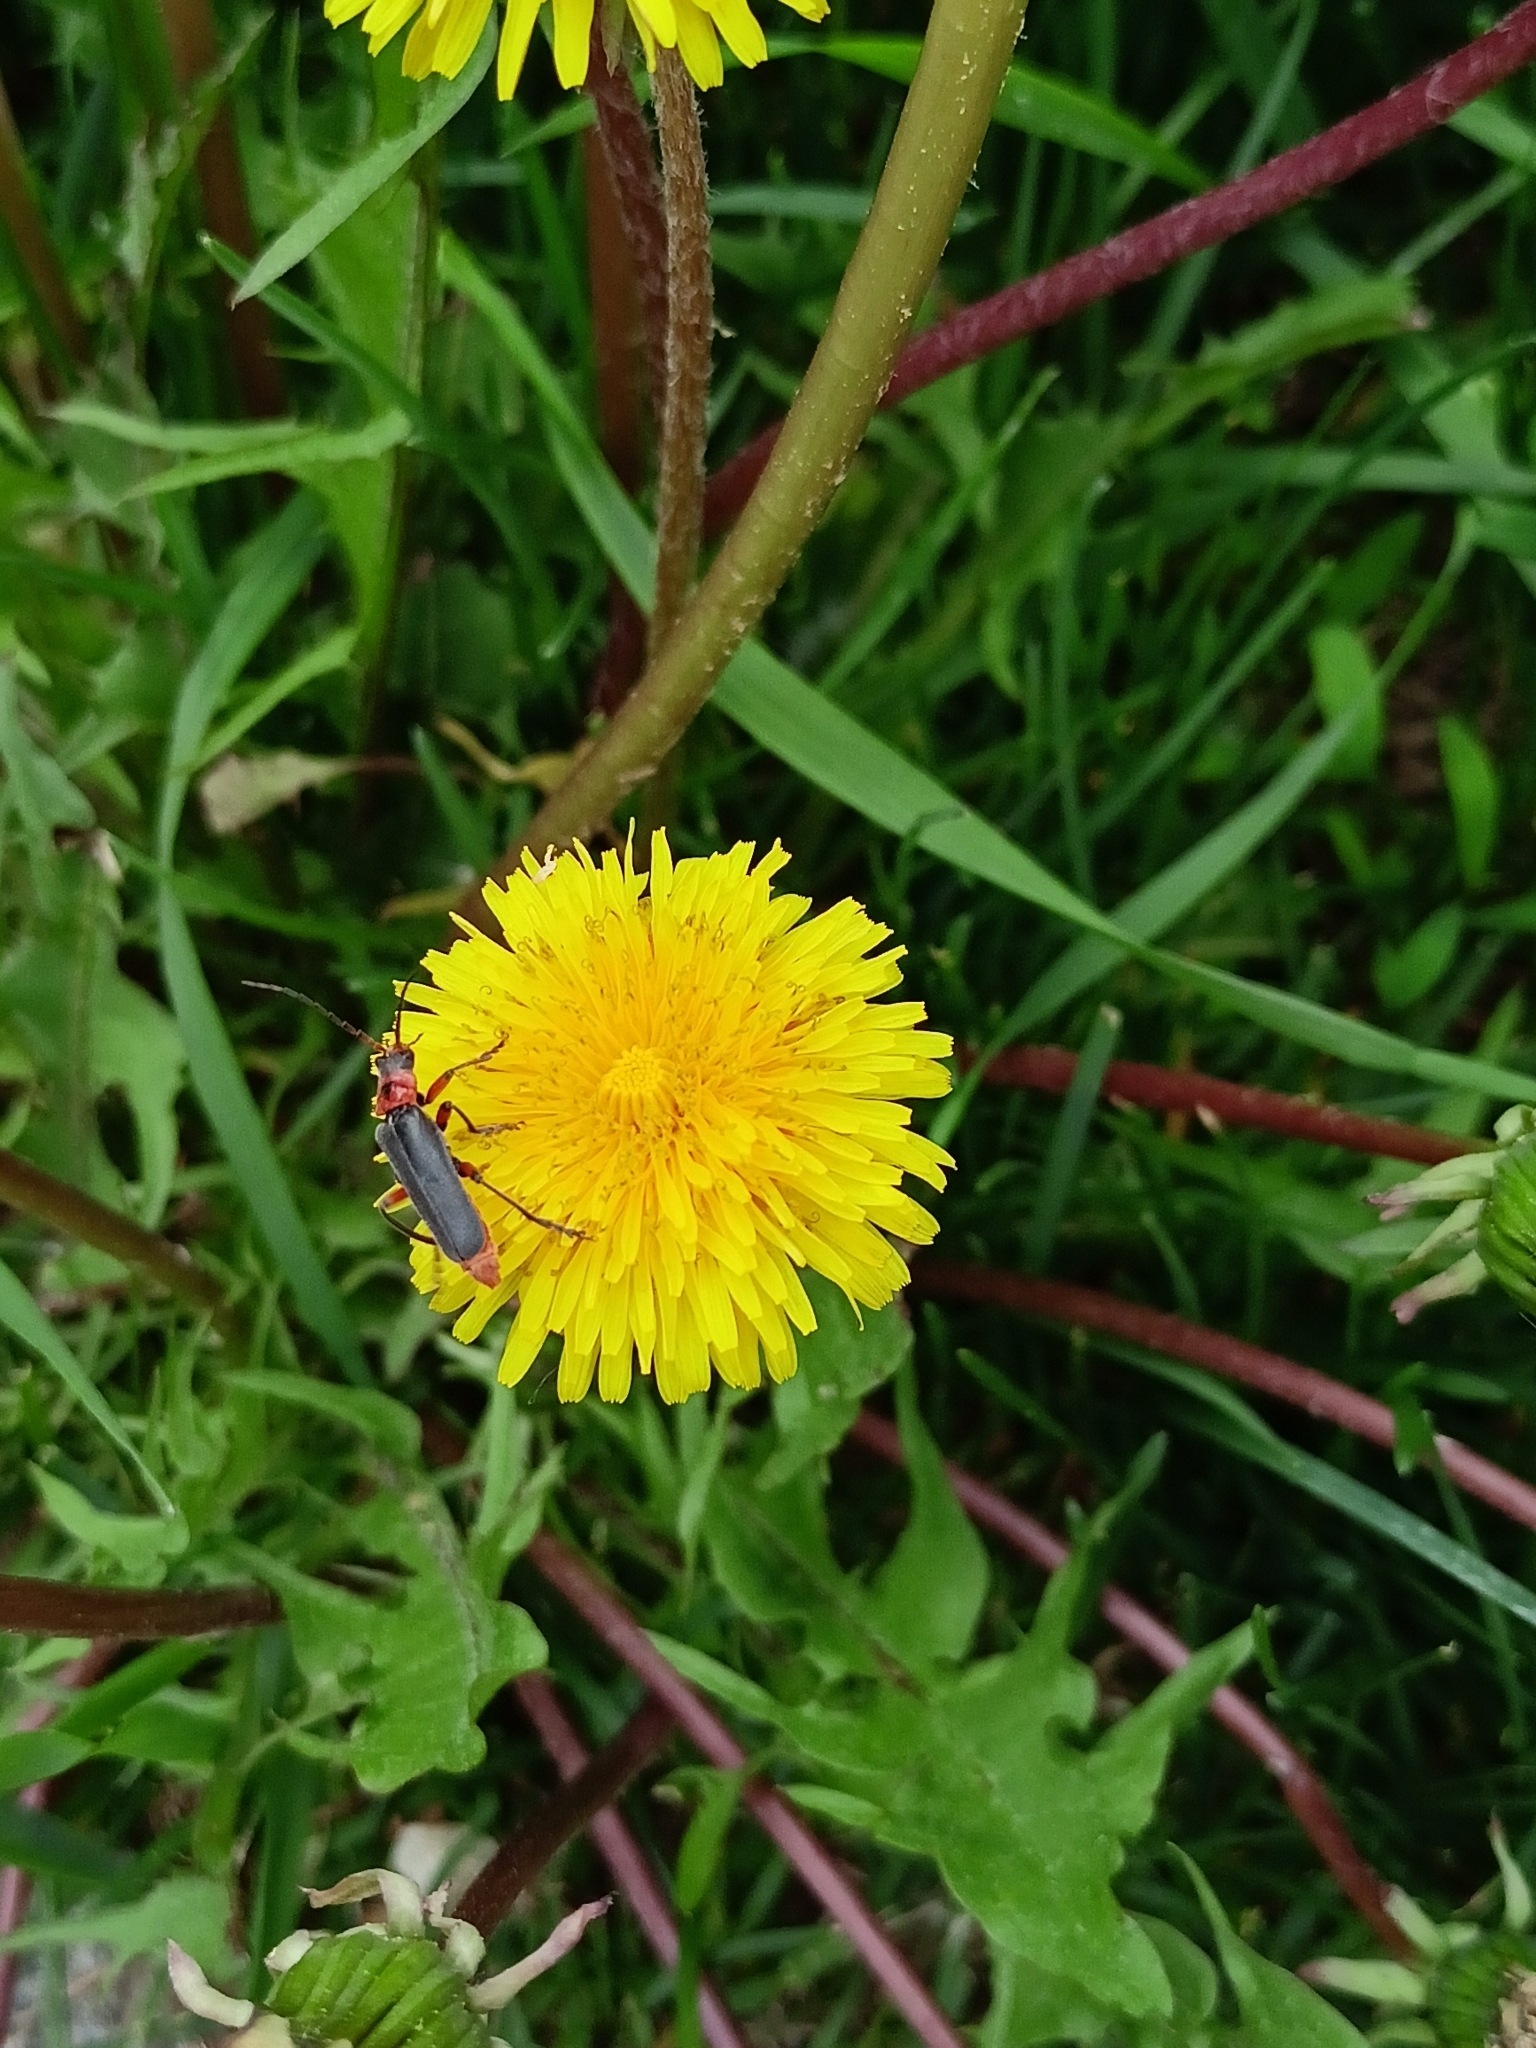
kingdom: Animalia
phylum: Arthropoda
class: Insecta
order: Coleoptera
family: Cantharidae
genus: Cantharis
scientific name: Cantharis rustica
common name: Soldier beetle
